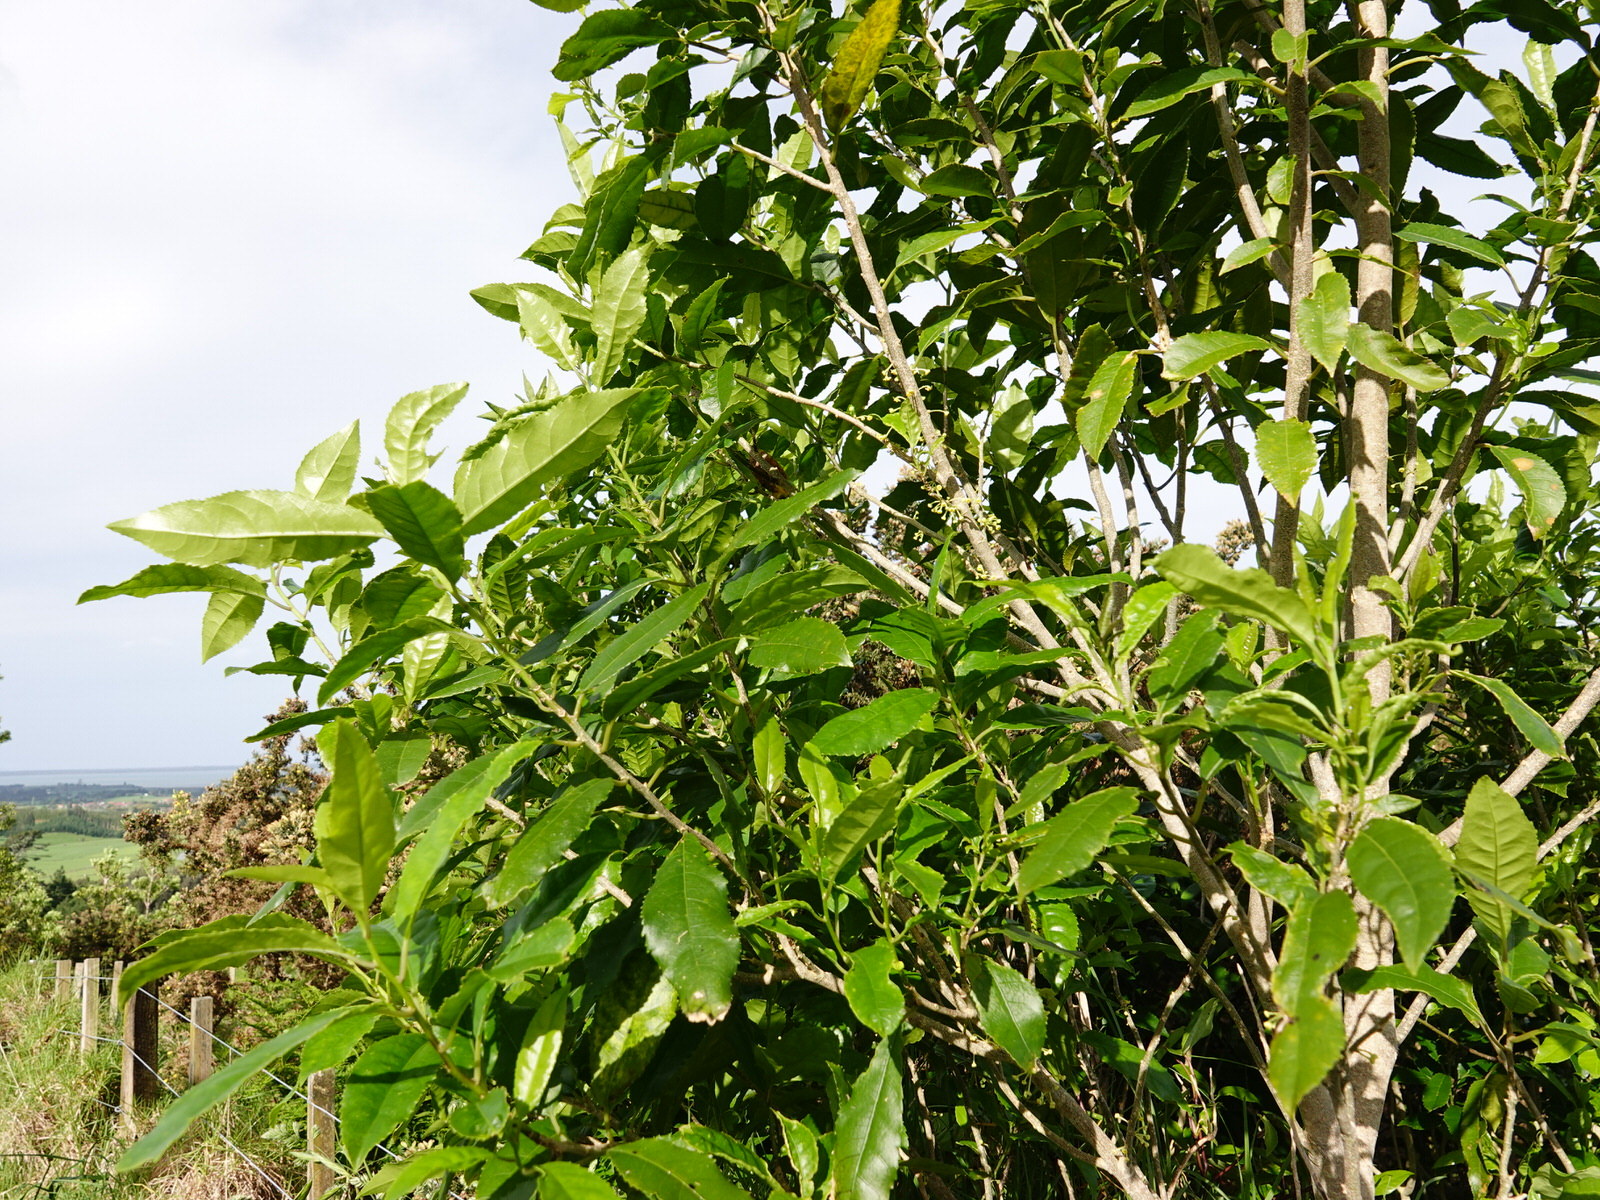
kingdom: Plantae
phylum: Tracheophyta
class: Magnoliopsida
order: Malpighiales
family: Violaceae
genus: Melicytus
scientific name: Melicytus ramiflorus
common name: Mahoe
